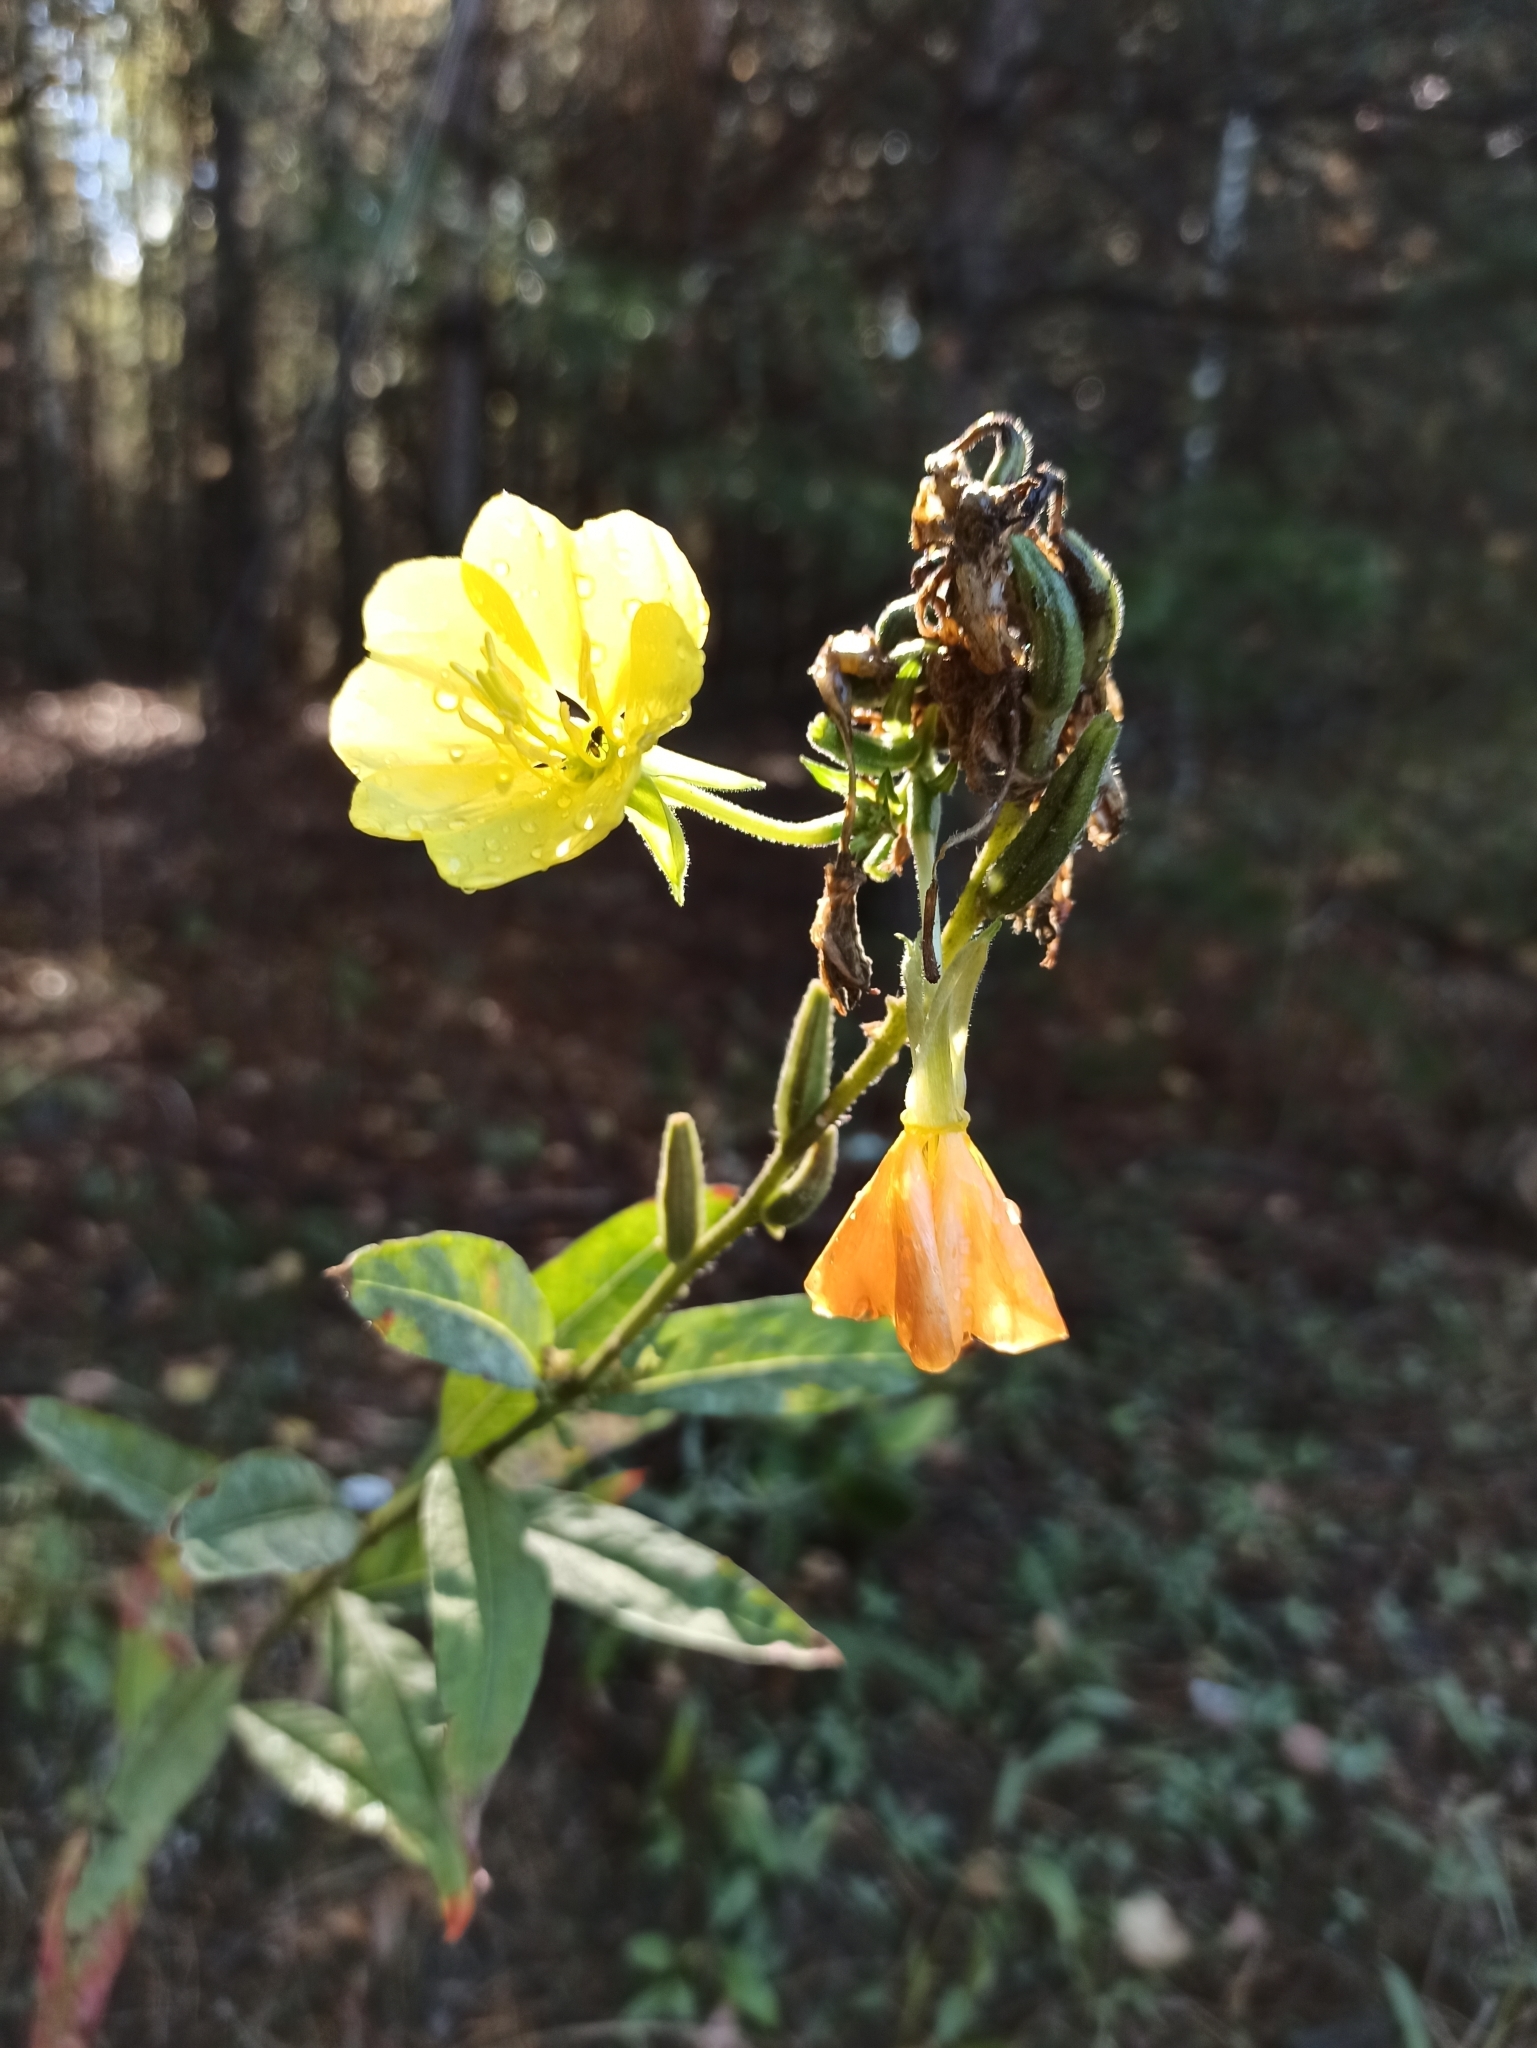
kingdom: Plantae
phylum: Tracheophyta
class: Magnoliopsida
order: Myrtales
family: Onagraceae
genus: Oenothera
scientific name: Oenothera biennis
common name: Common evening-primrose
